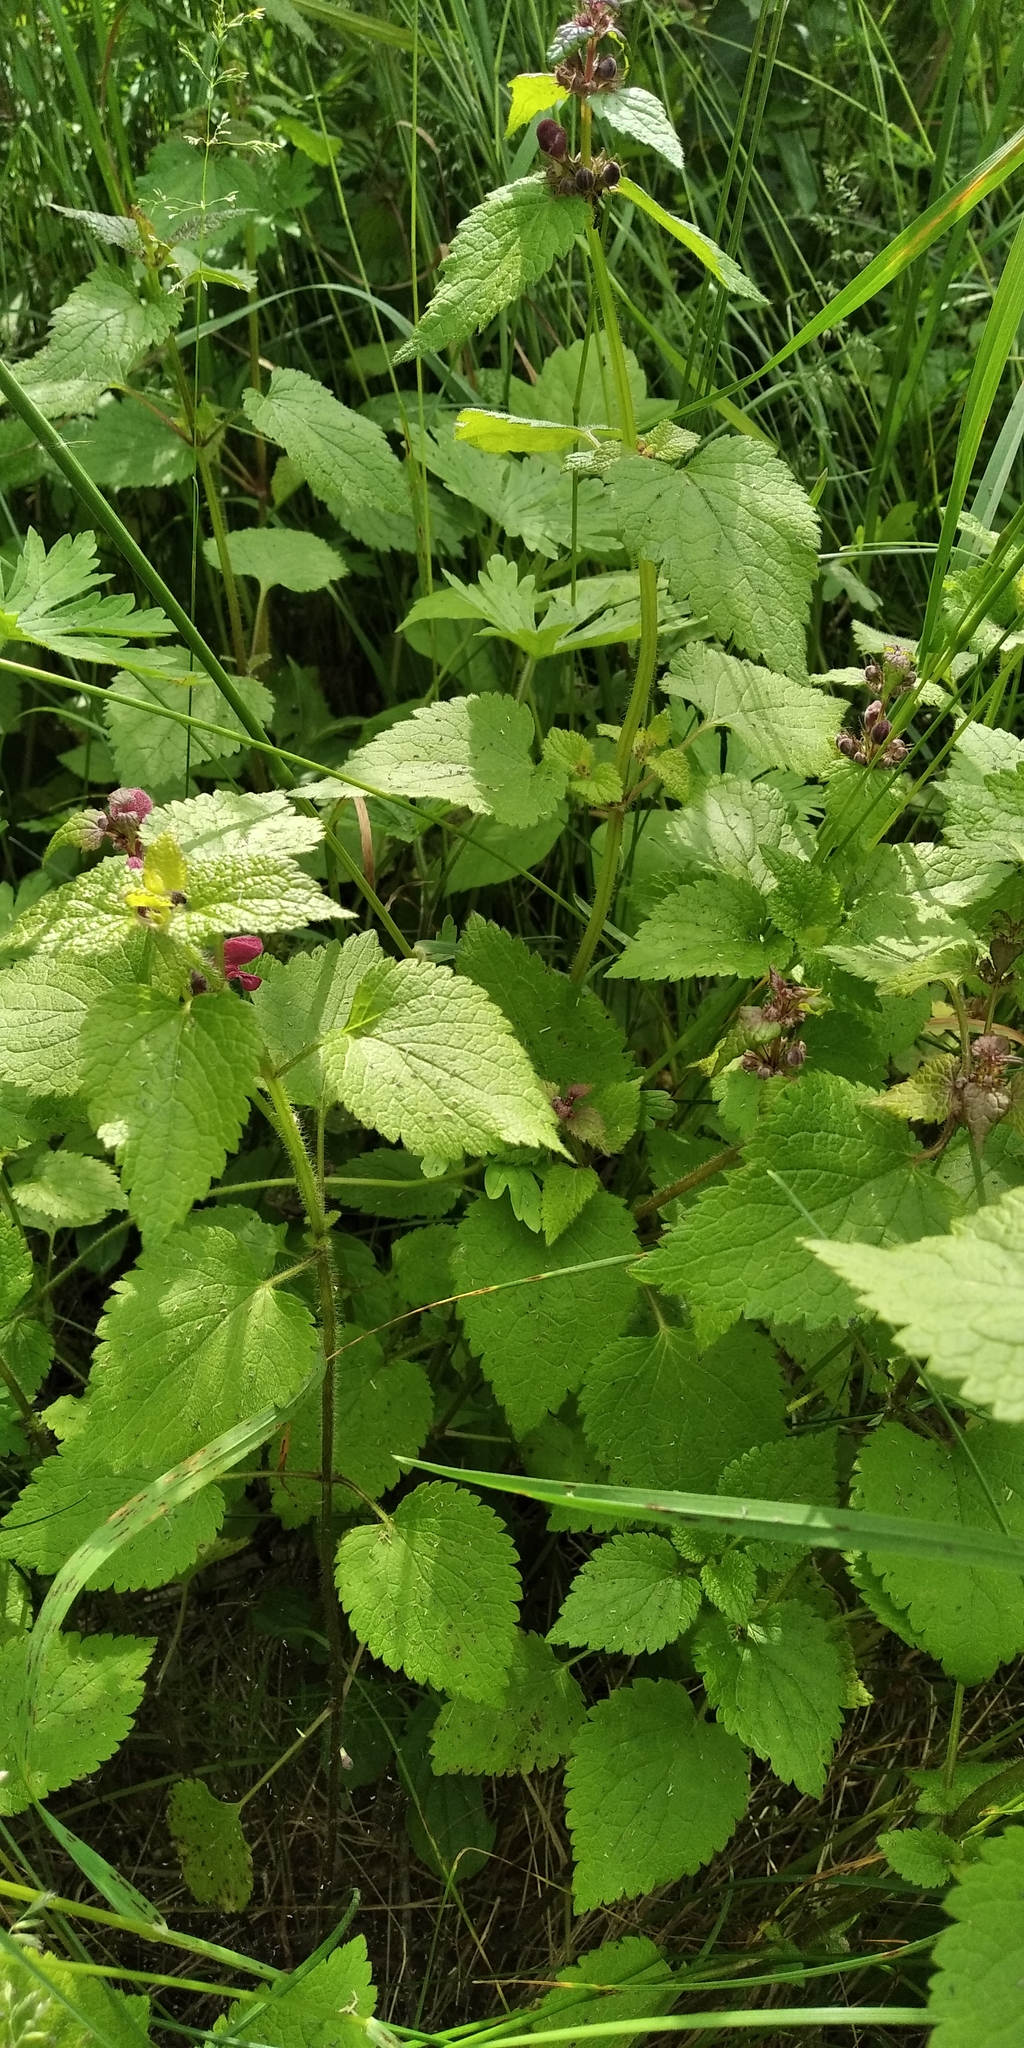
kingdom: Plantae
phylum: Tracheophyta
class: Magnoliopsida
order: Lamiales
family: Lamiaceae
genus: Lamium
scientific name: Lamium maculatum
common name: Spotted dead-nettle
